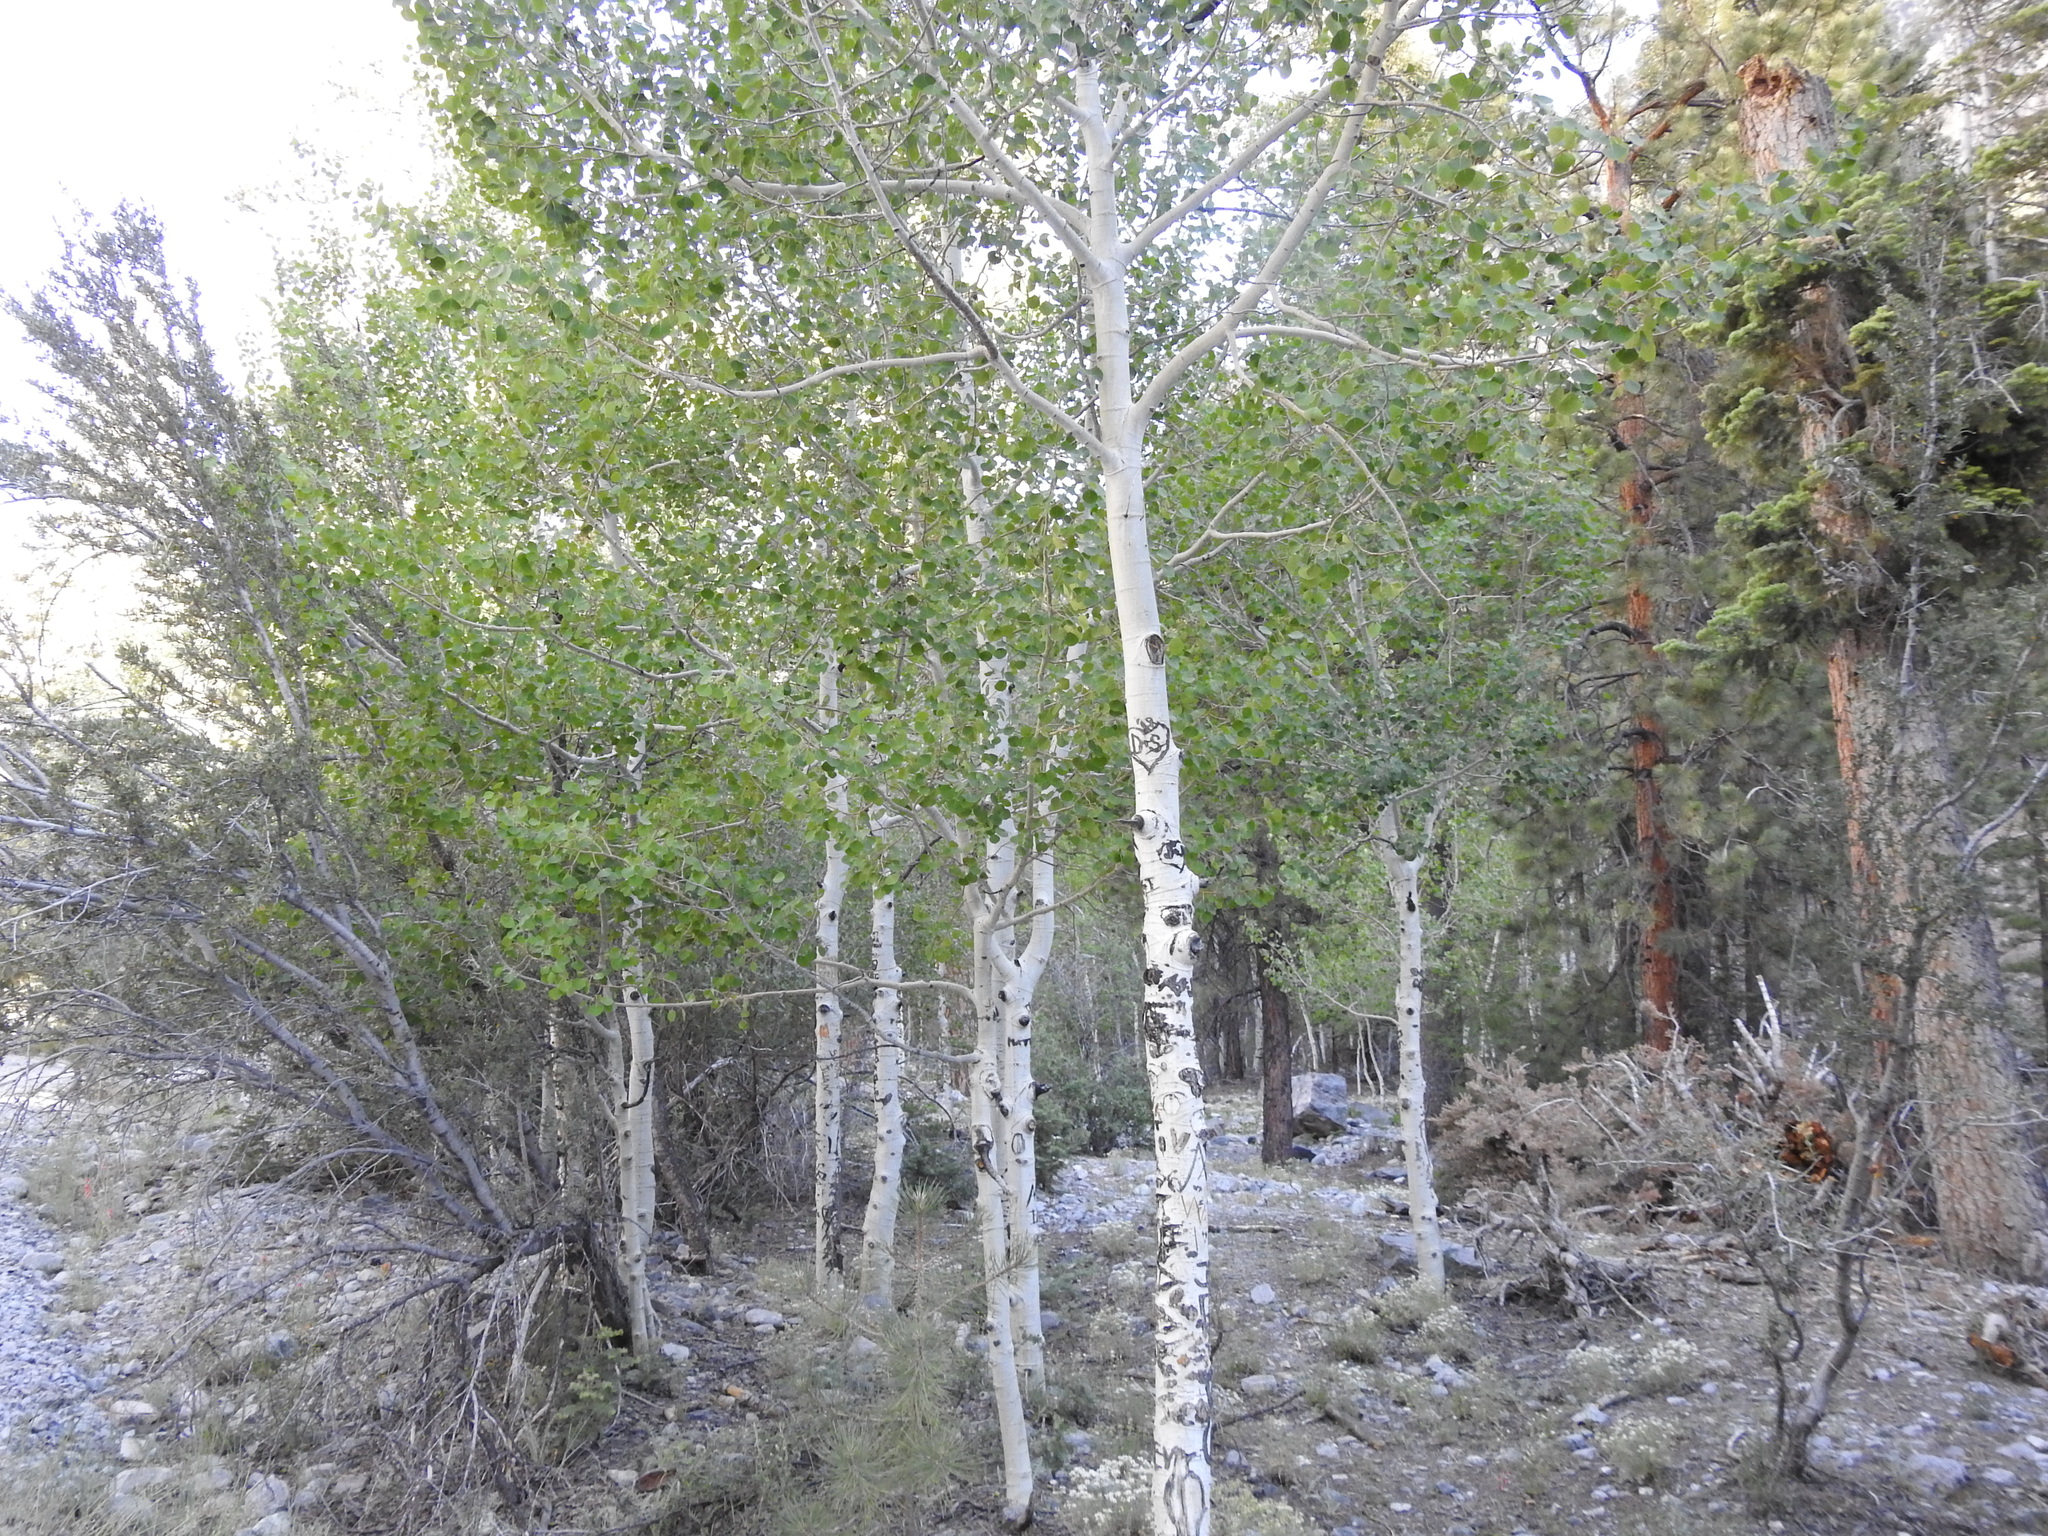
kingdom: Plantae
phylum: Tracheophyta
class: Magnoliopsida
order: Malpighiales
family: Salicaceae
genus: Populus
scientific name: Populus tremuloides
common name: Quaking aspen
